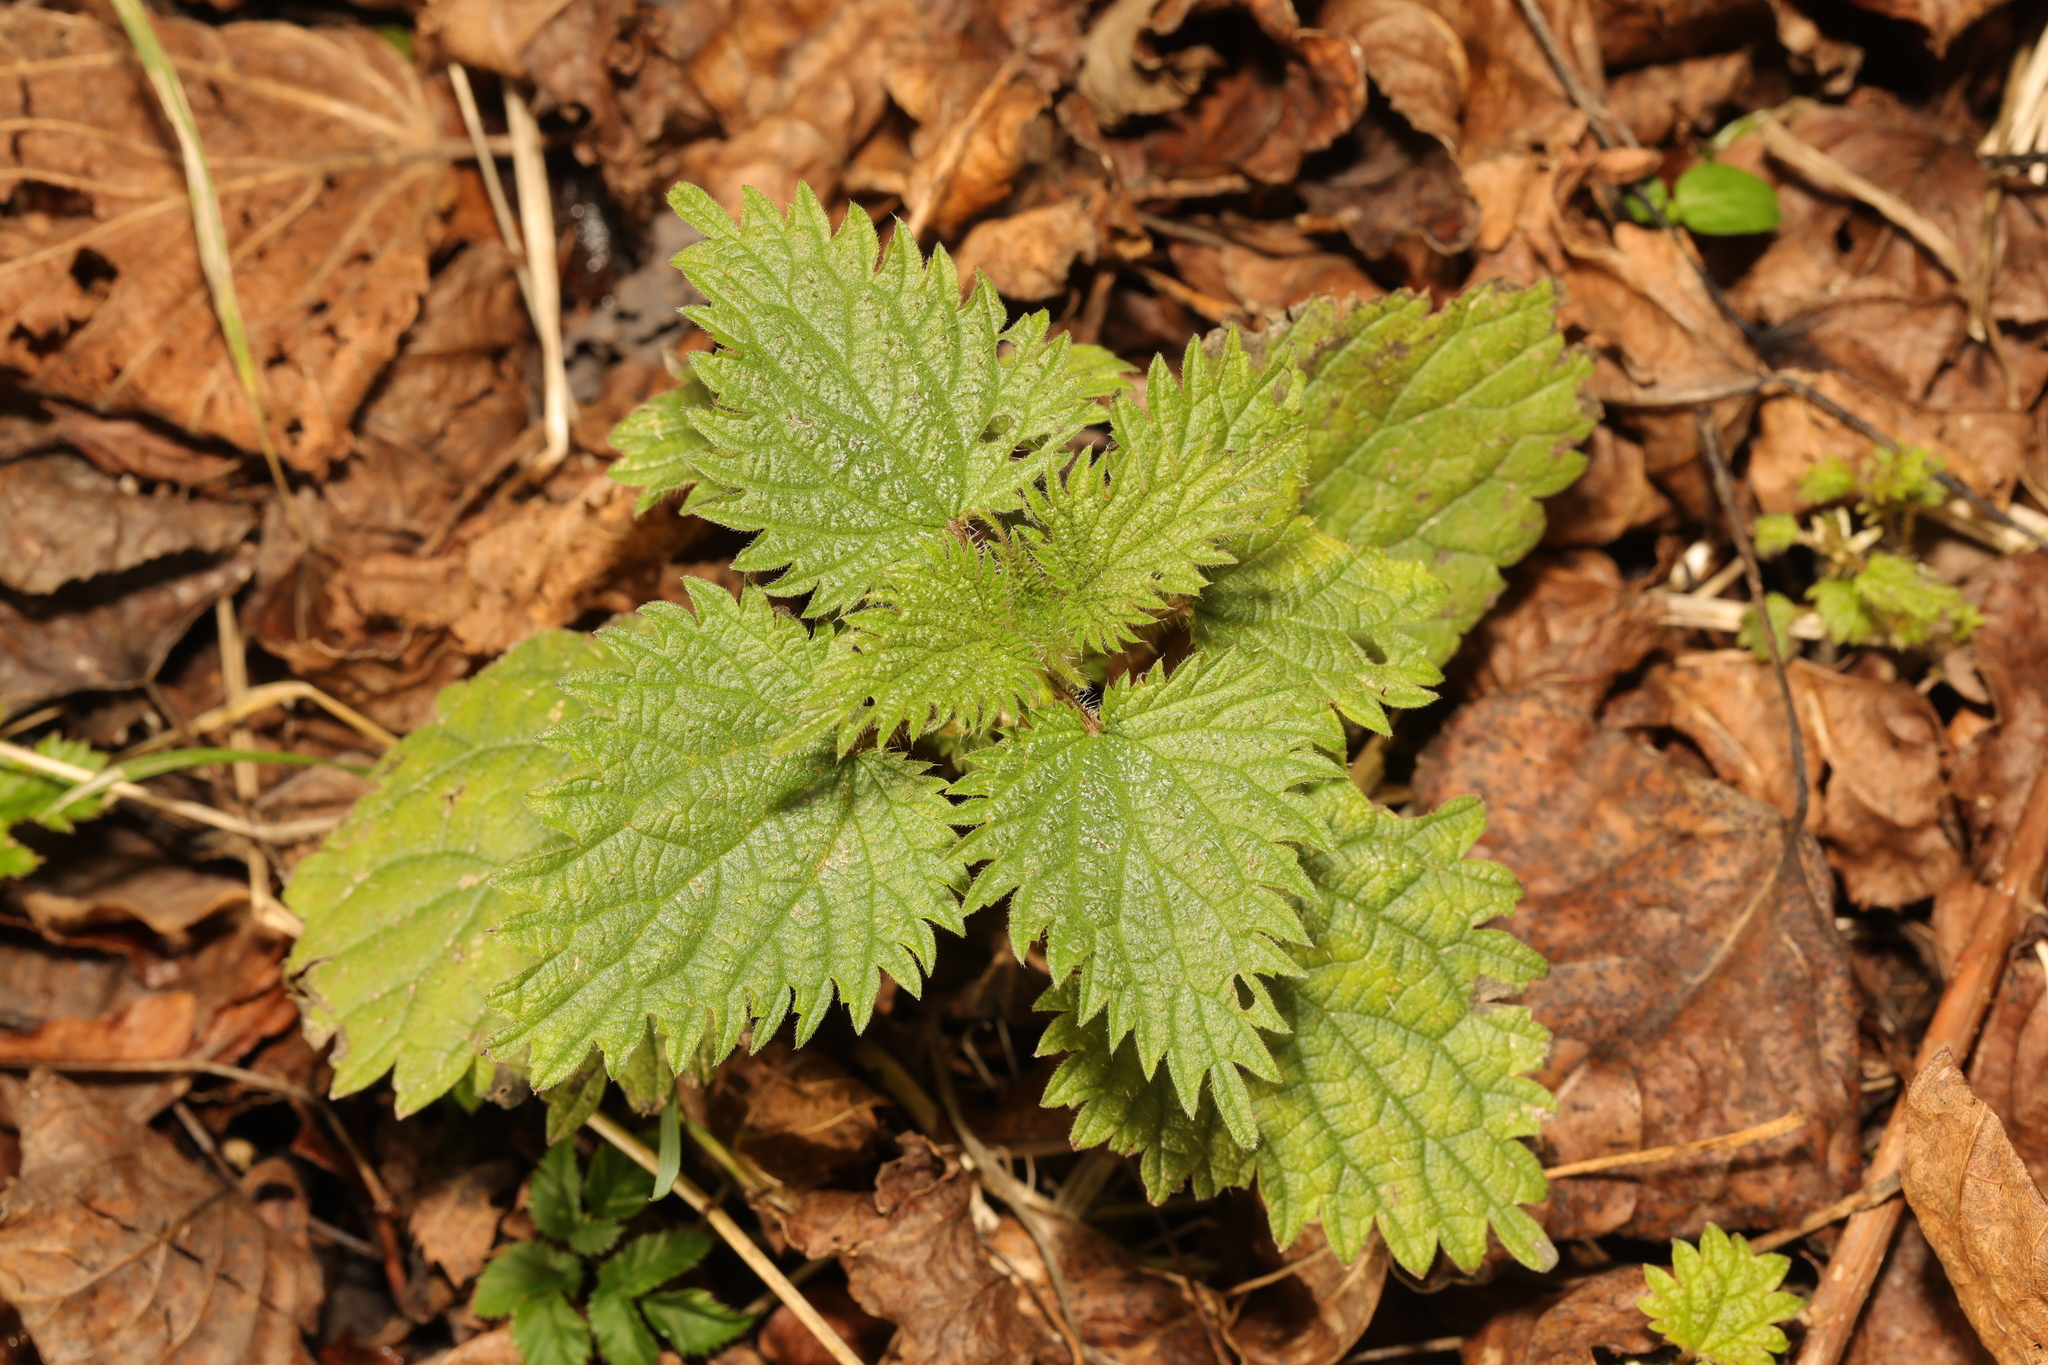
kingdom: Plantae
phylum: Tracheophyta
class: Magnoliopsida
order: Rosales
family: Urticaceae
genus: Urtica
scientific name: Urtica dioica
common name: Common nettle
